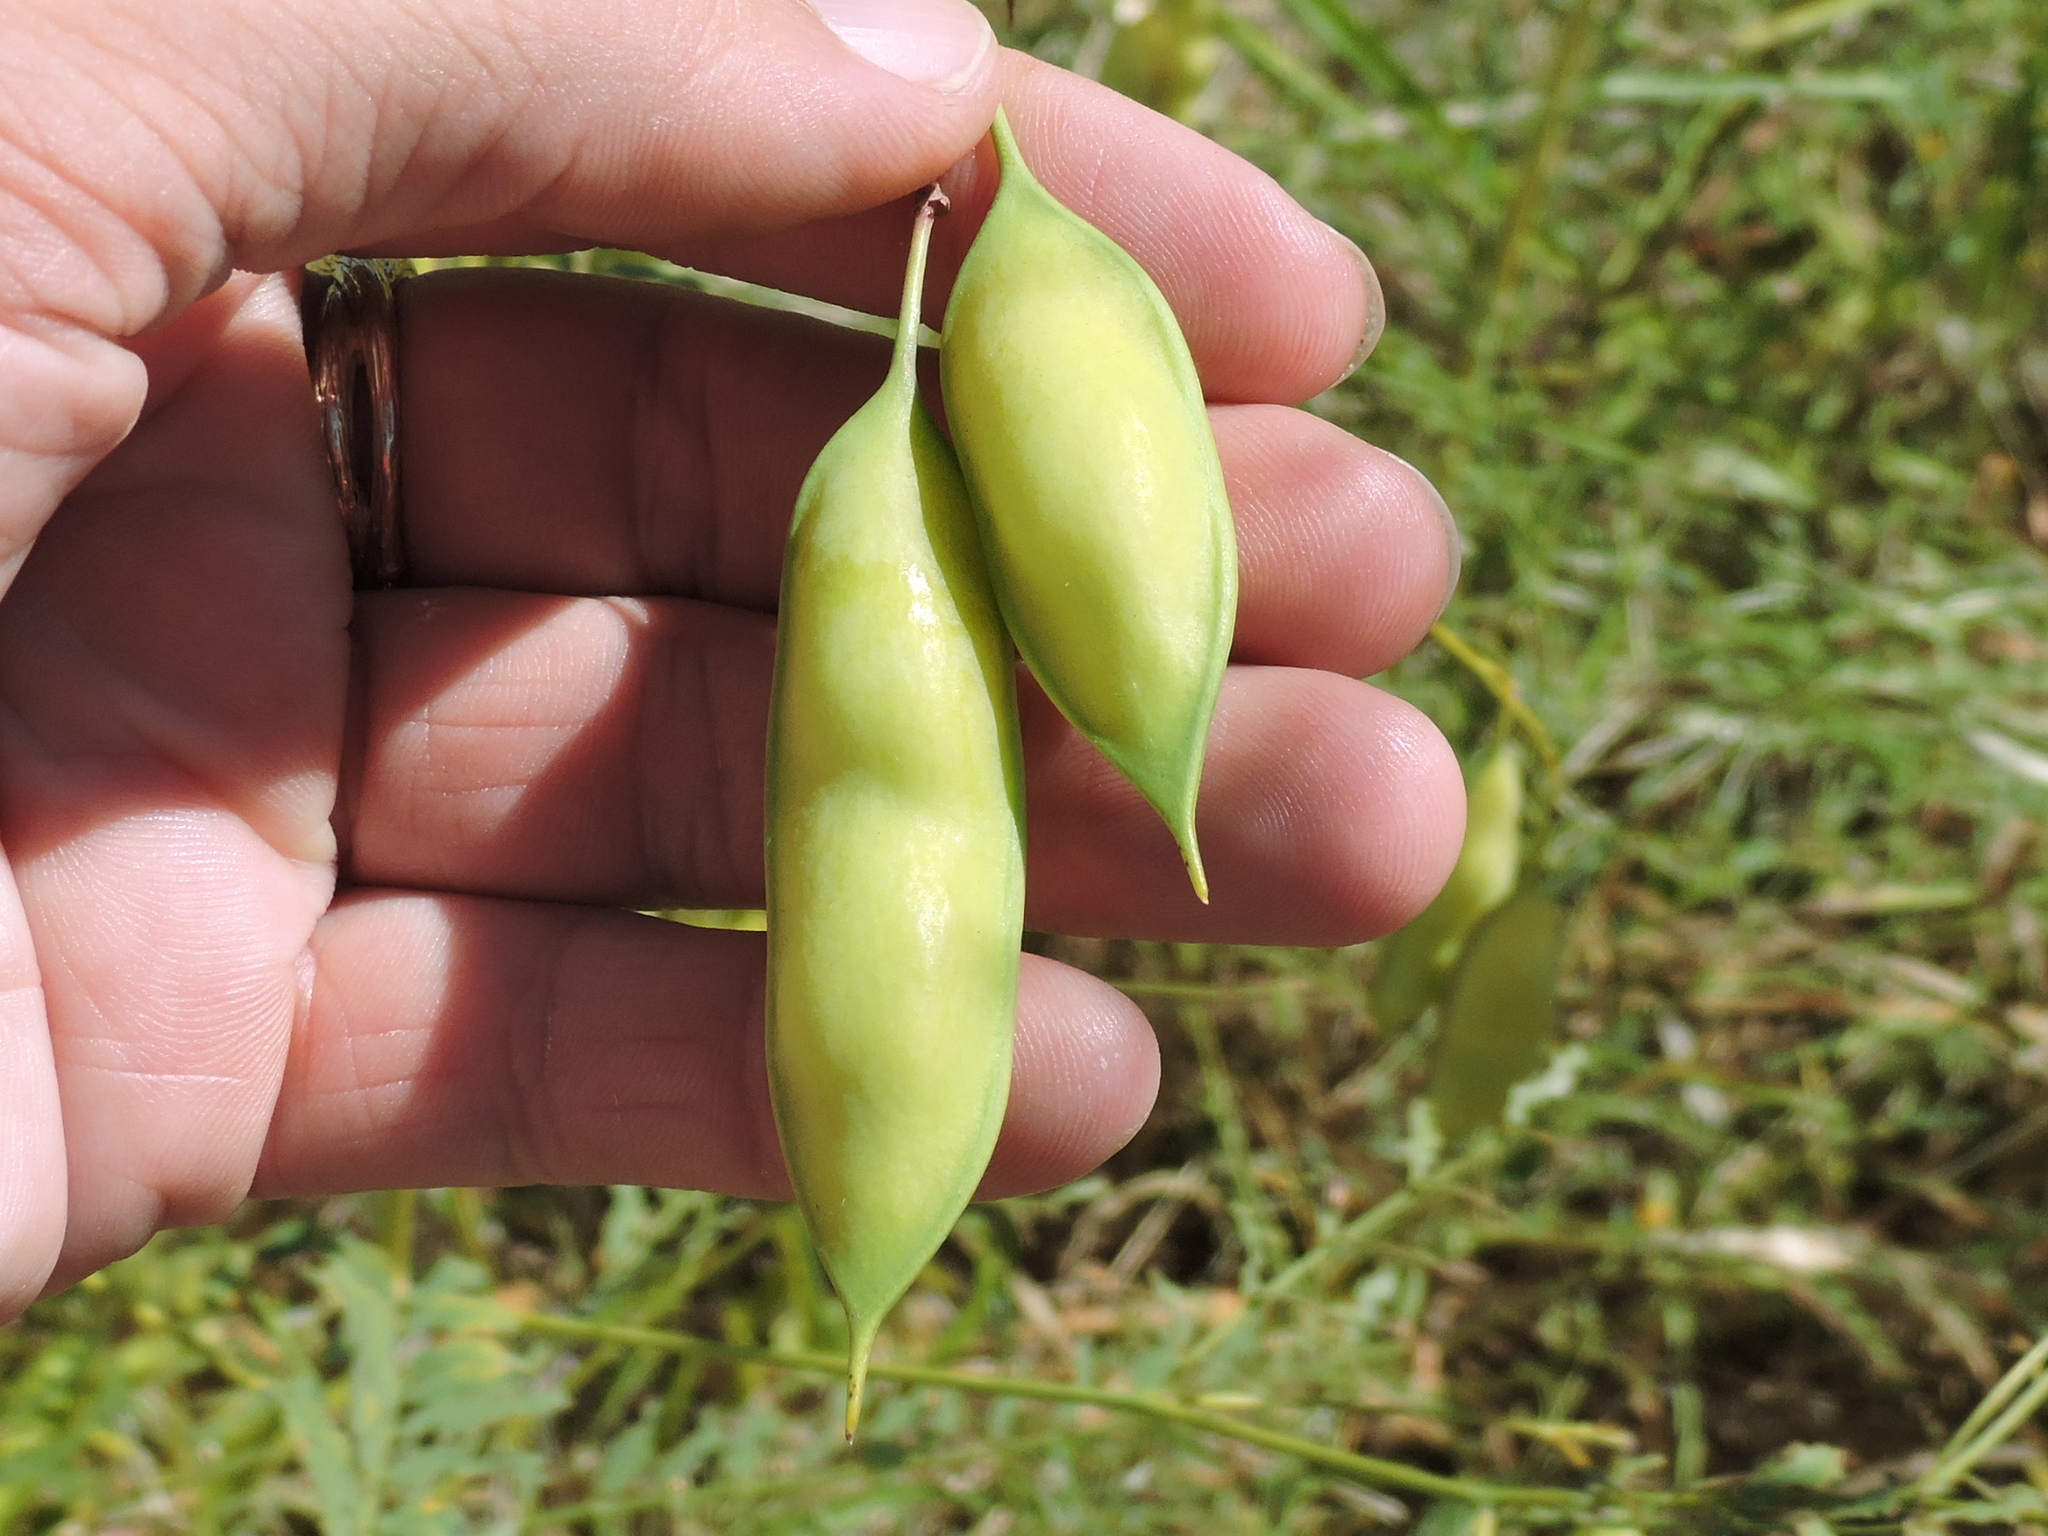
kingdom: Plantae
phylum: Tracheophyta
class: Magnoliopsida
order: Fabales
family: Fabaceae
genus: Sesbania
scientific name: Sesbania vesicaria
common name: Bagpod
